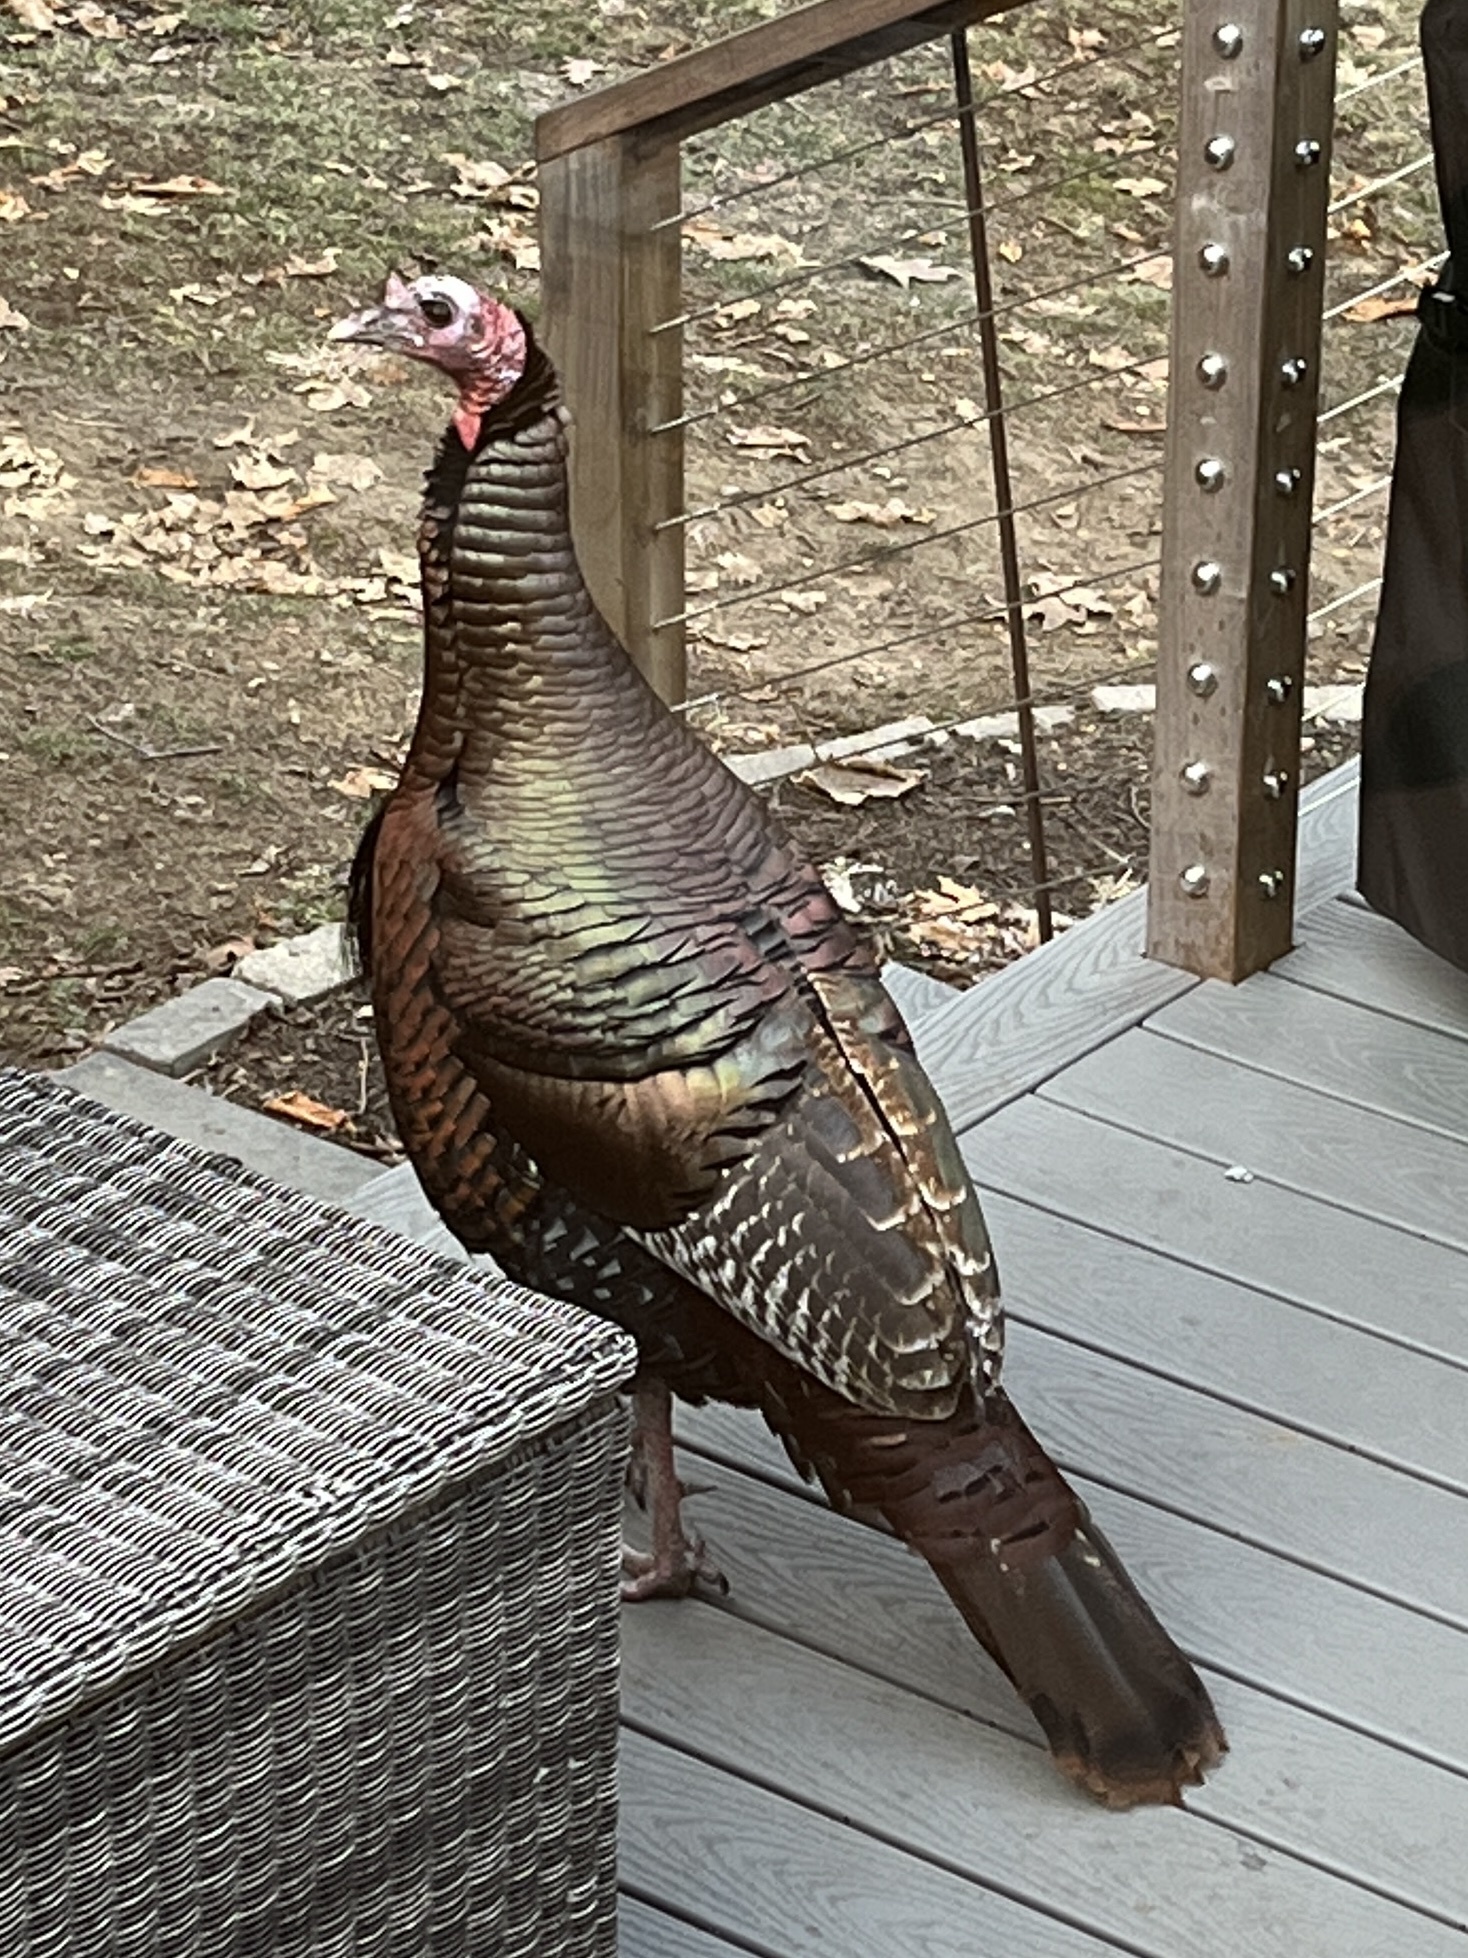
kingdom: Animalia
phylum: Chordata
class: Aves
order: Galliformes
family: Phasianidae
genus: Meleagris
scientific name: Meleagris gallopavo
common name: Wild turkey
